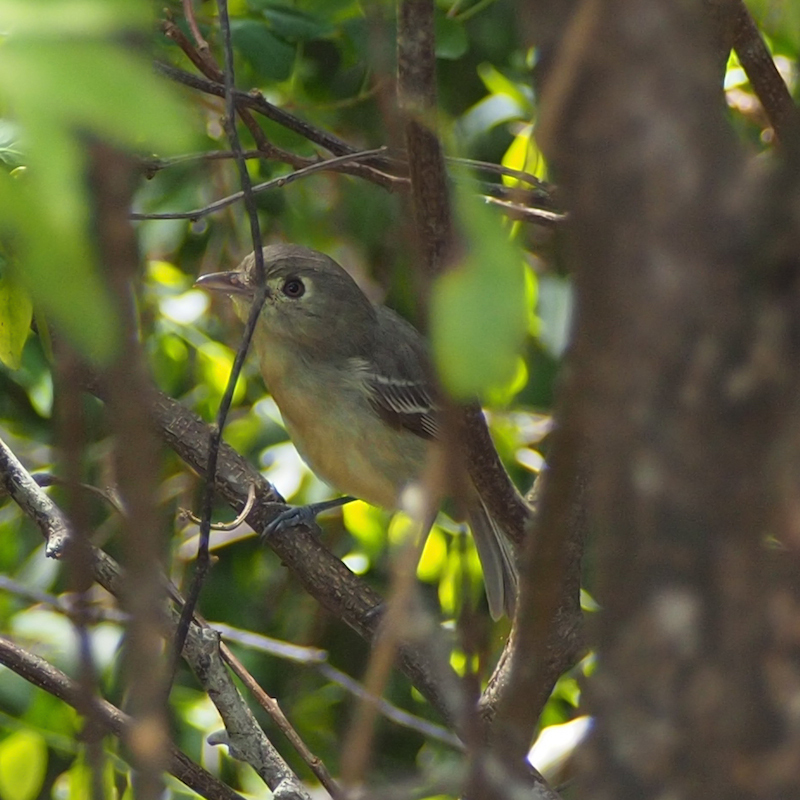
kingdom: Animalia
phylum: Chordata
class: Aves
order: Passeriformes
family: Vireonidae
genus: Vireo
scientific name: Vireo gundlachii
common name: Cuban vireo
